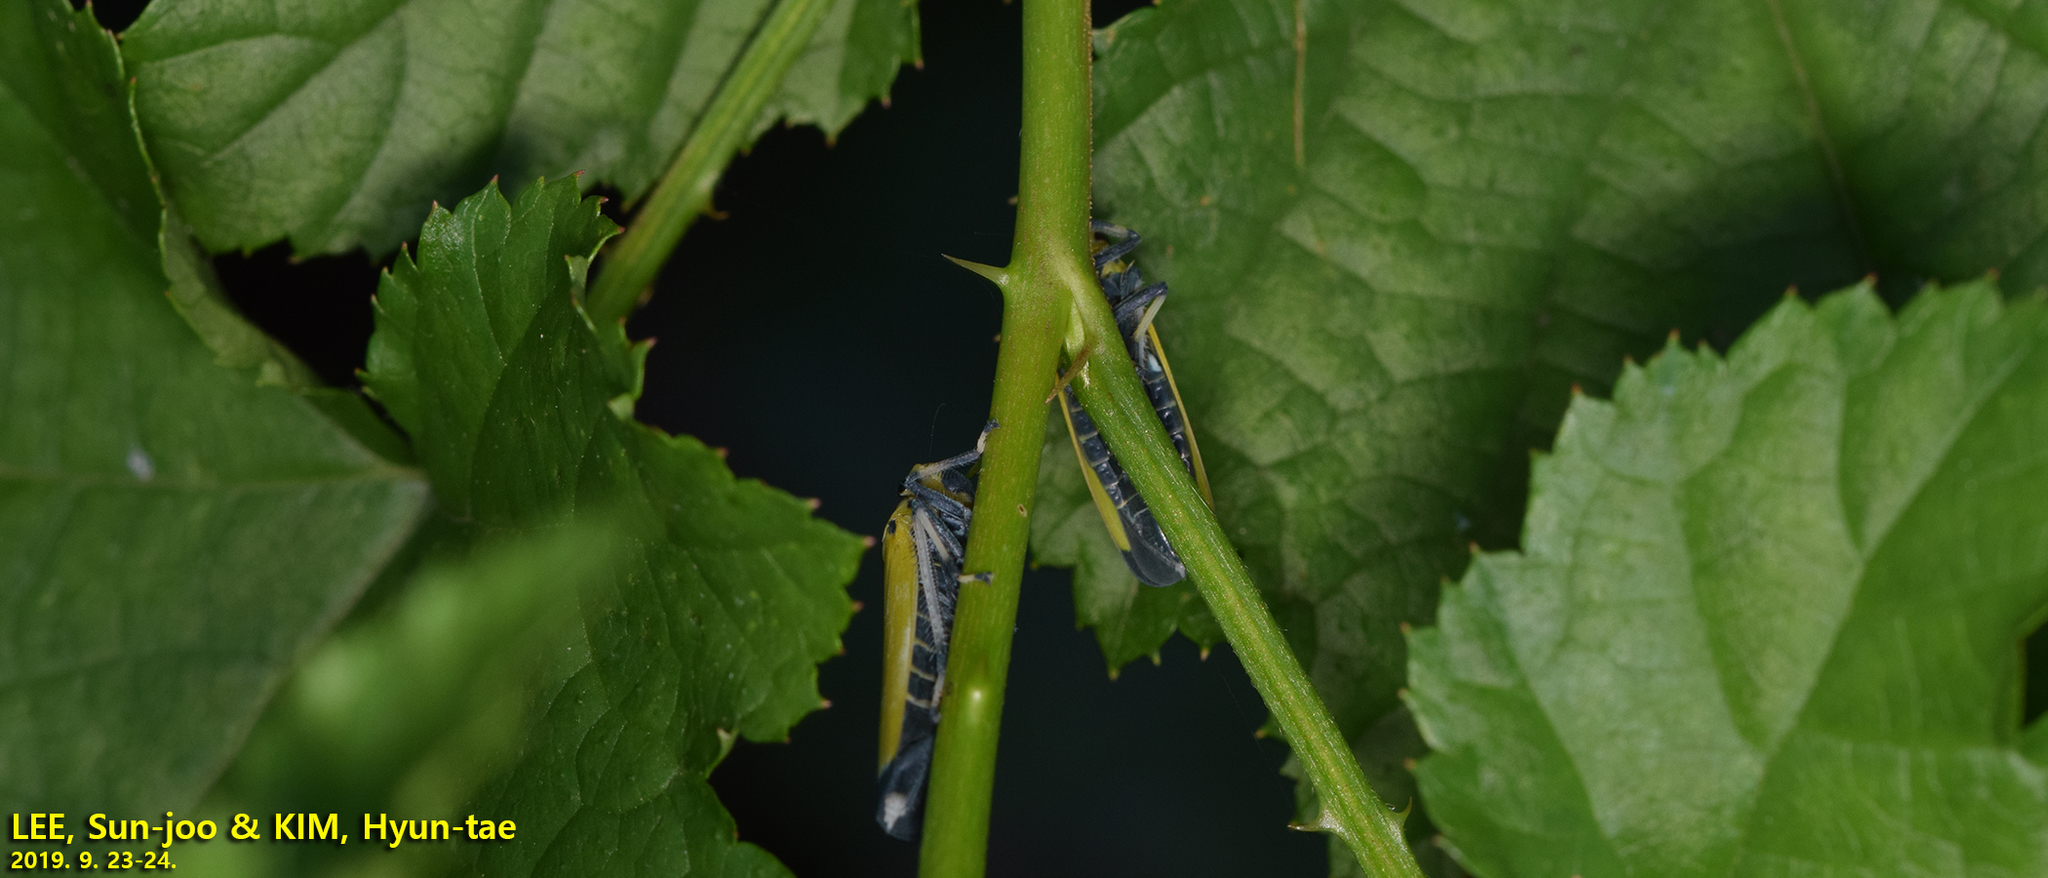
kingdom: Animalia
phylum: Arthropoda
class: Insecta
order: Hemiptera
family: Cicadellidae
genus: Bothrogonia
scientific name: Bothrogonia ferruginea
